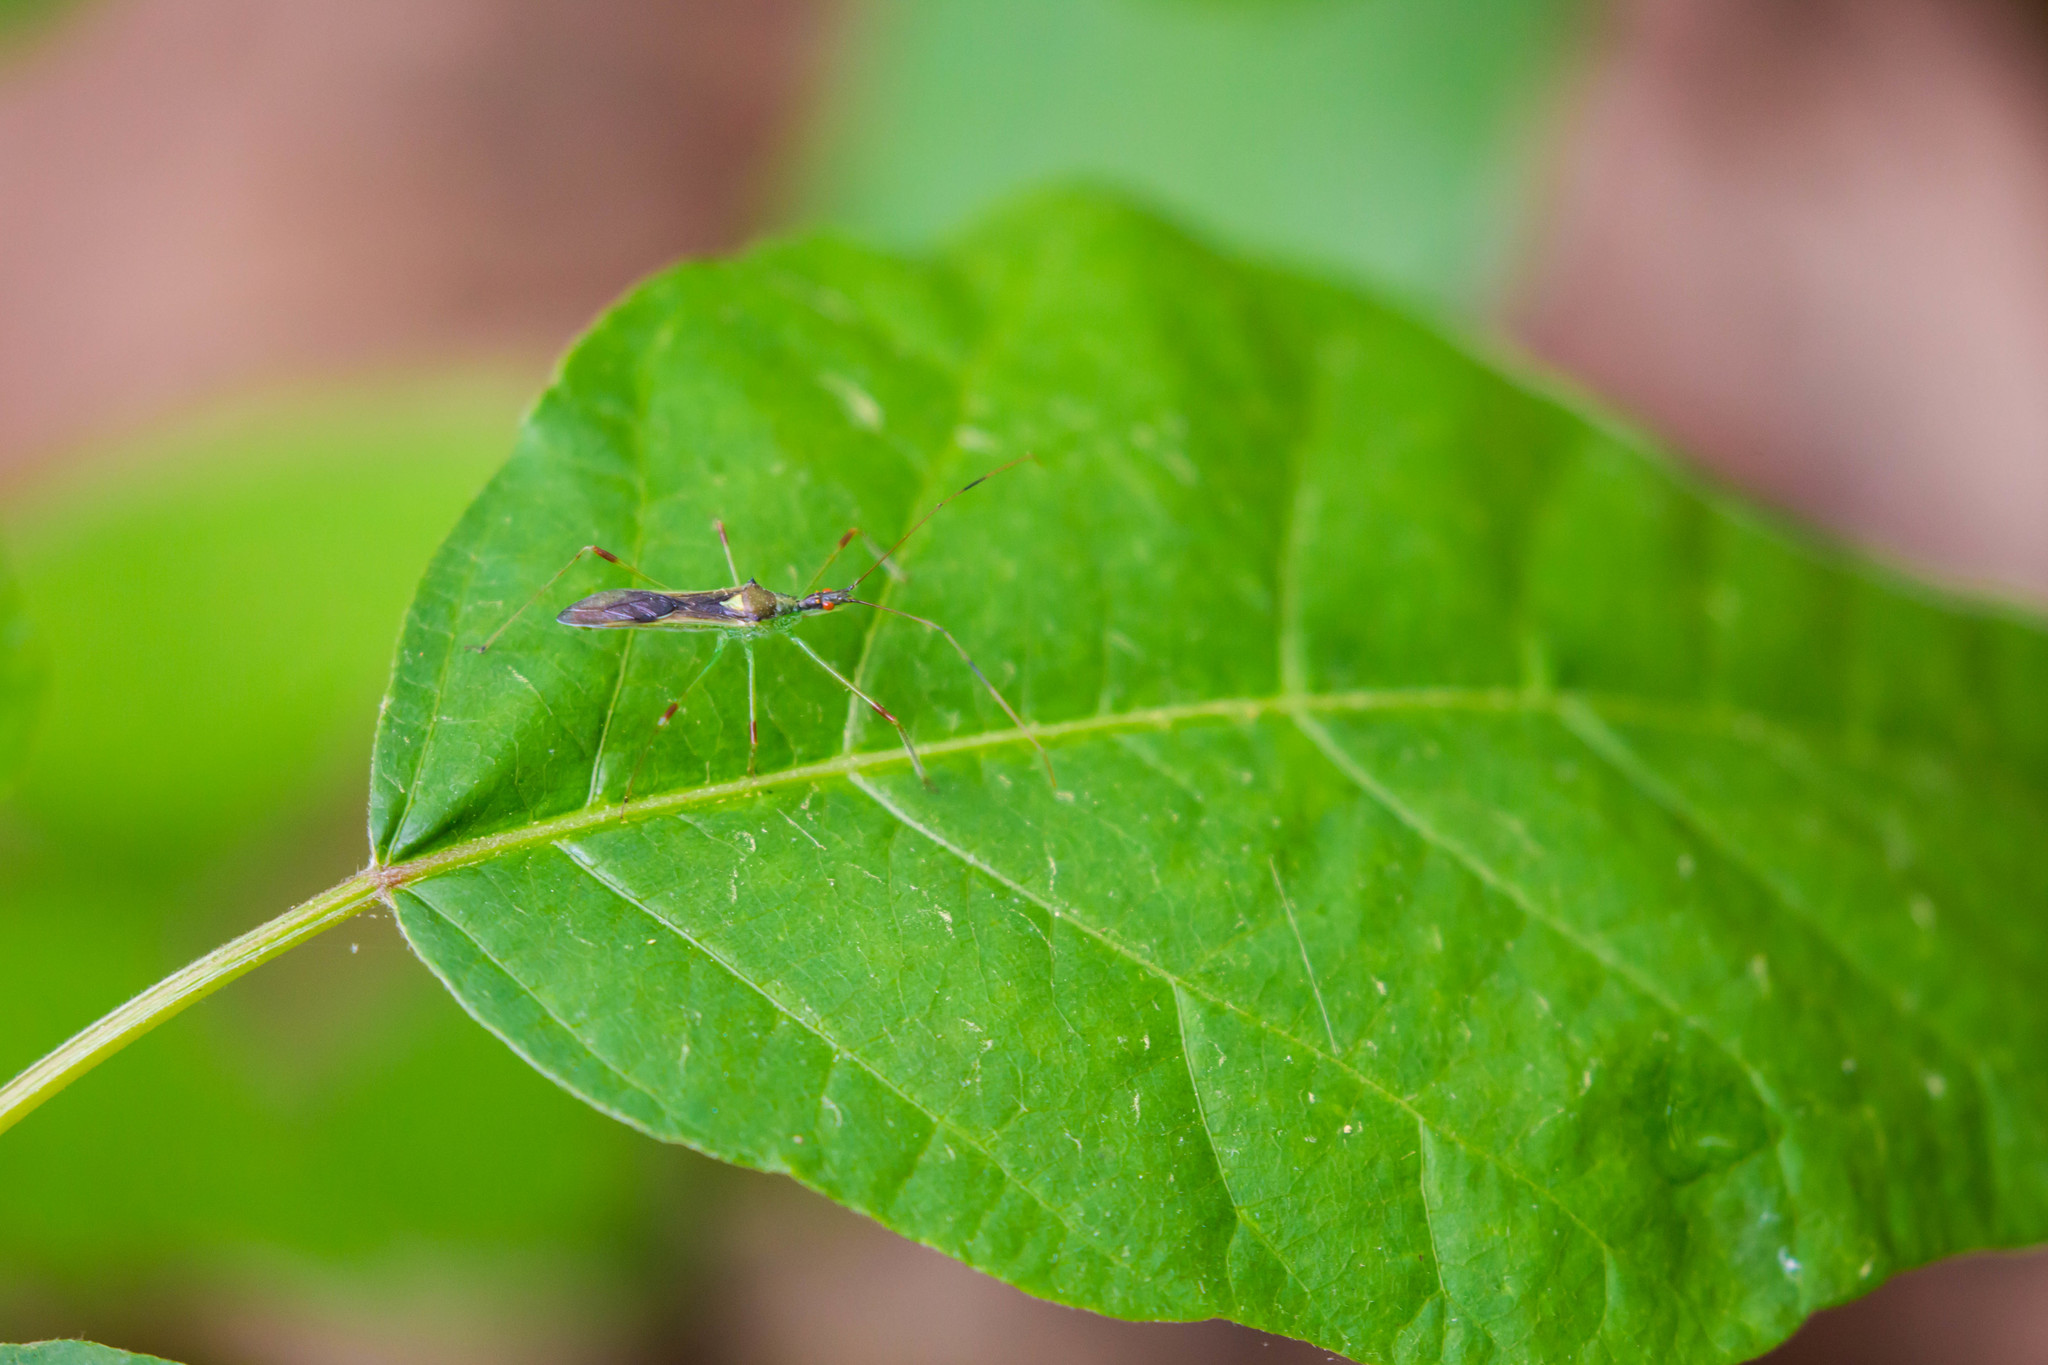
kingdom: Animalia
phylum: Arthropoda
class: Insecta
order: Hemiptera
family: Reduviidae
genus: Zelus
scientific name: Zelus luridus
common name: Pale green assassin bug
